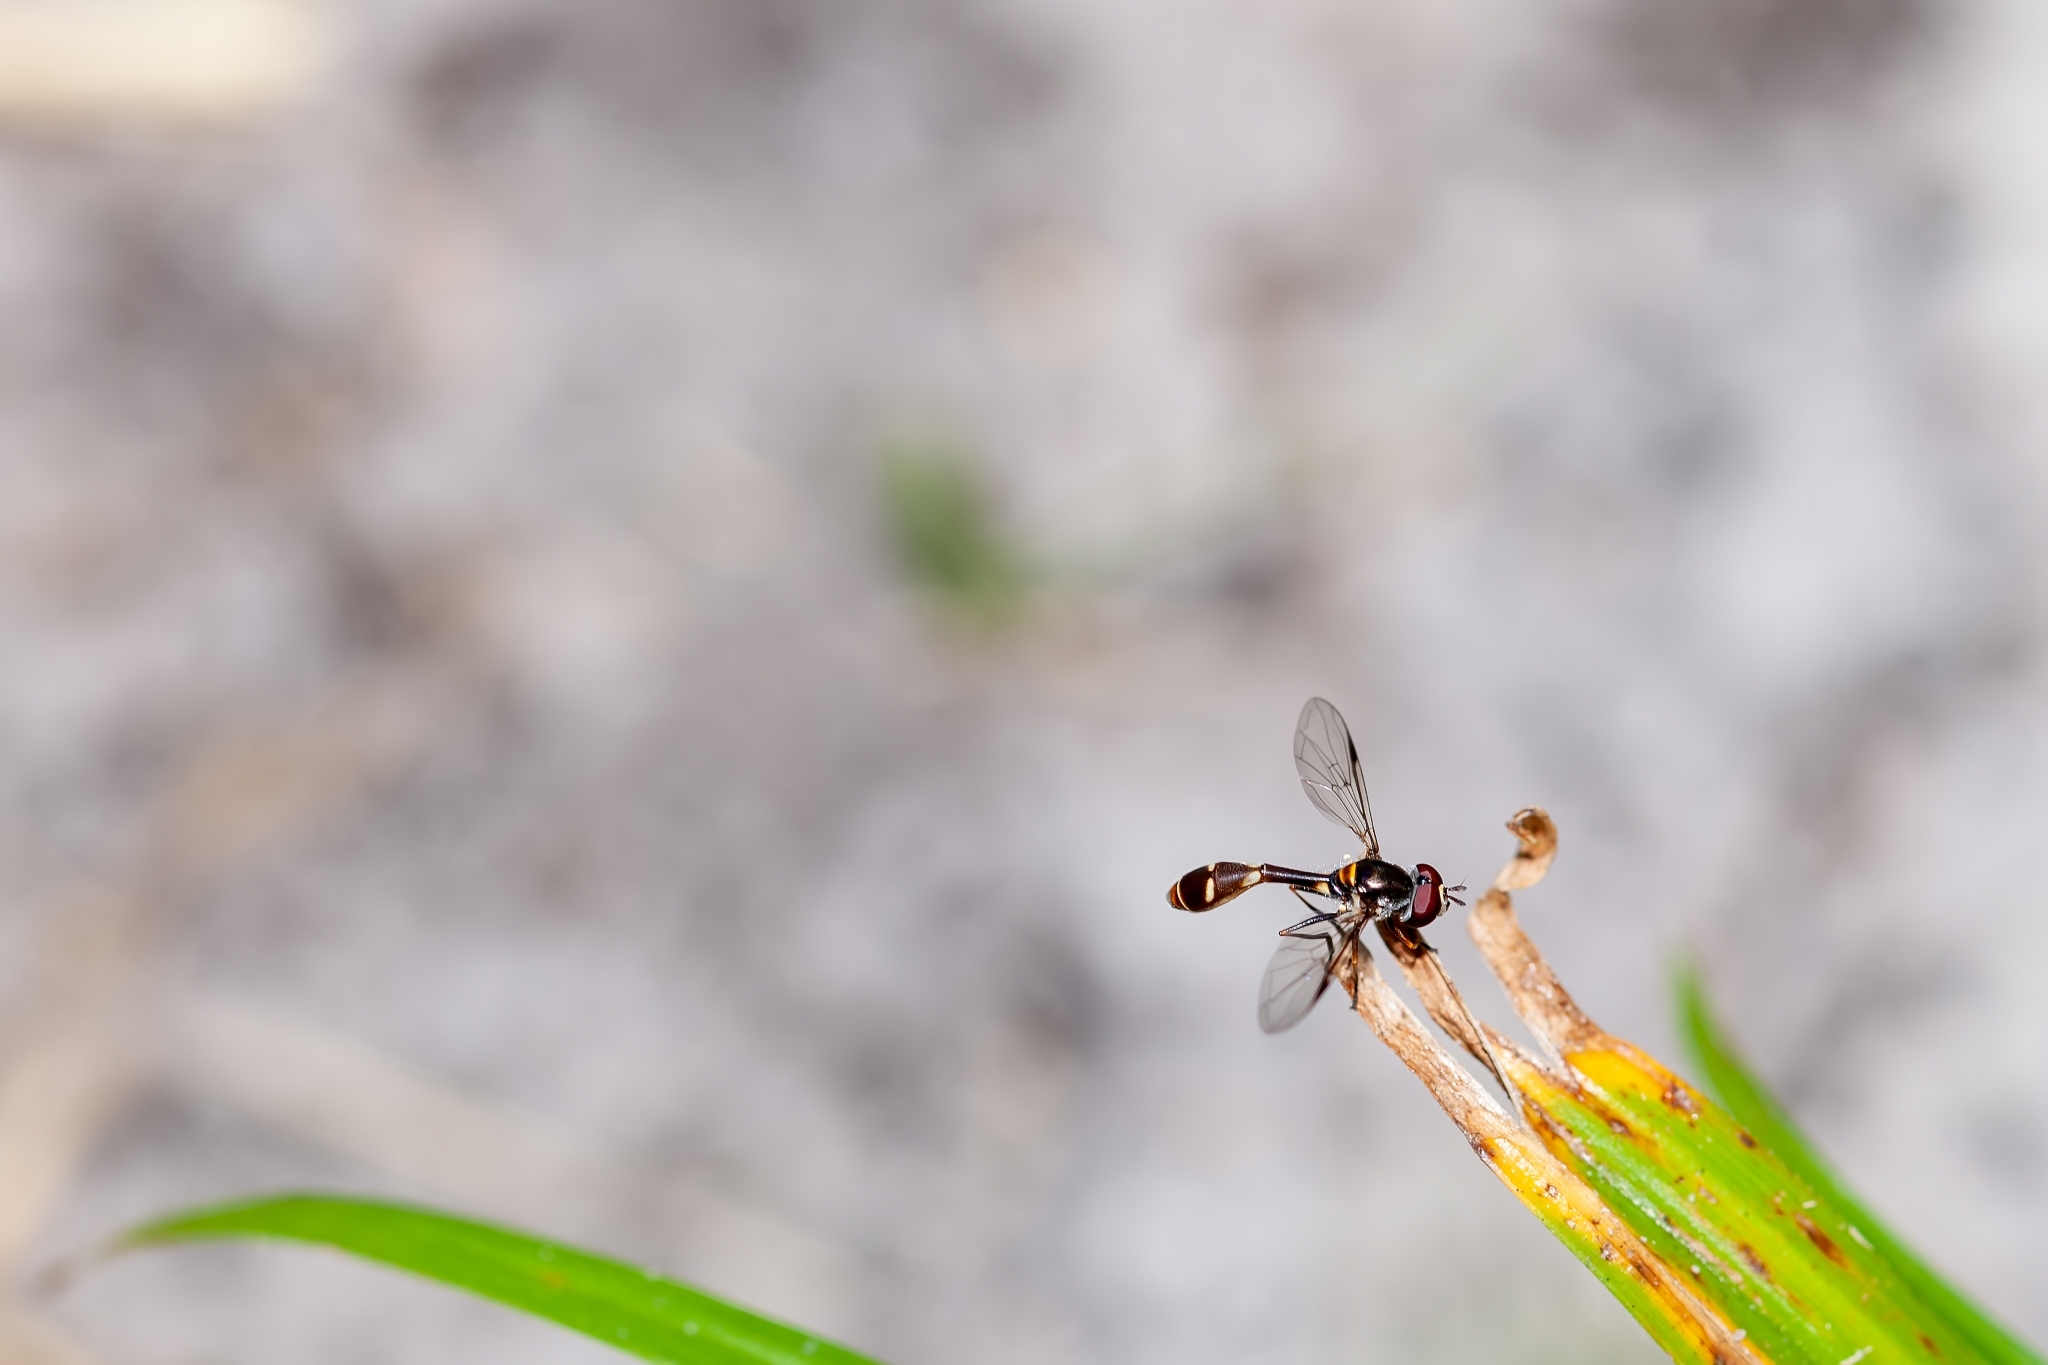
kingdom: Animalia
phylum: Arthropoda
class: Insecta
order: Diptera
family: Syrphidae
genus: Dioprosopa
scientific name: Dioprosopa clavatus
